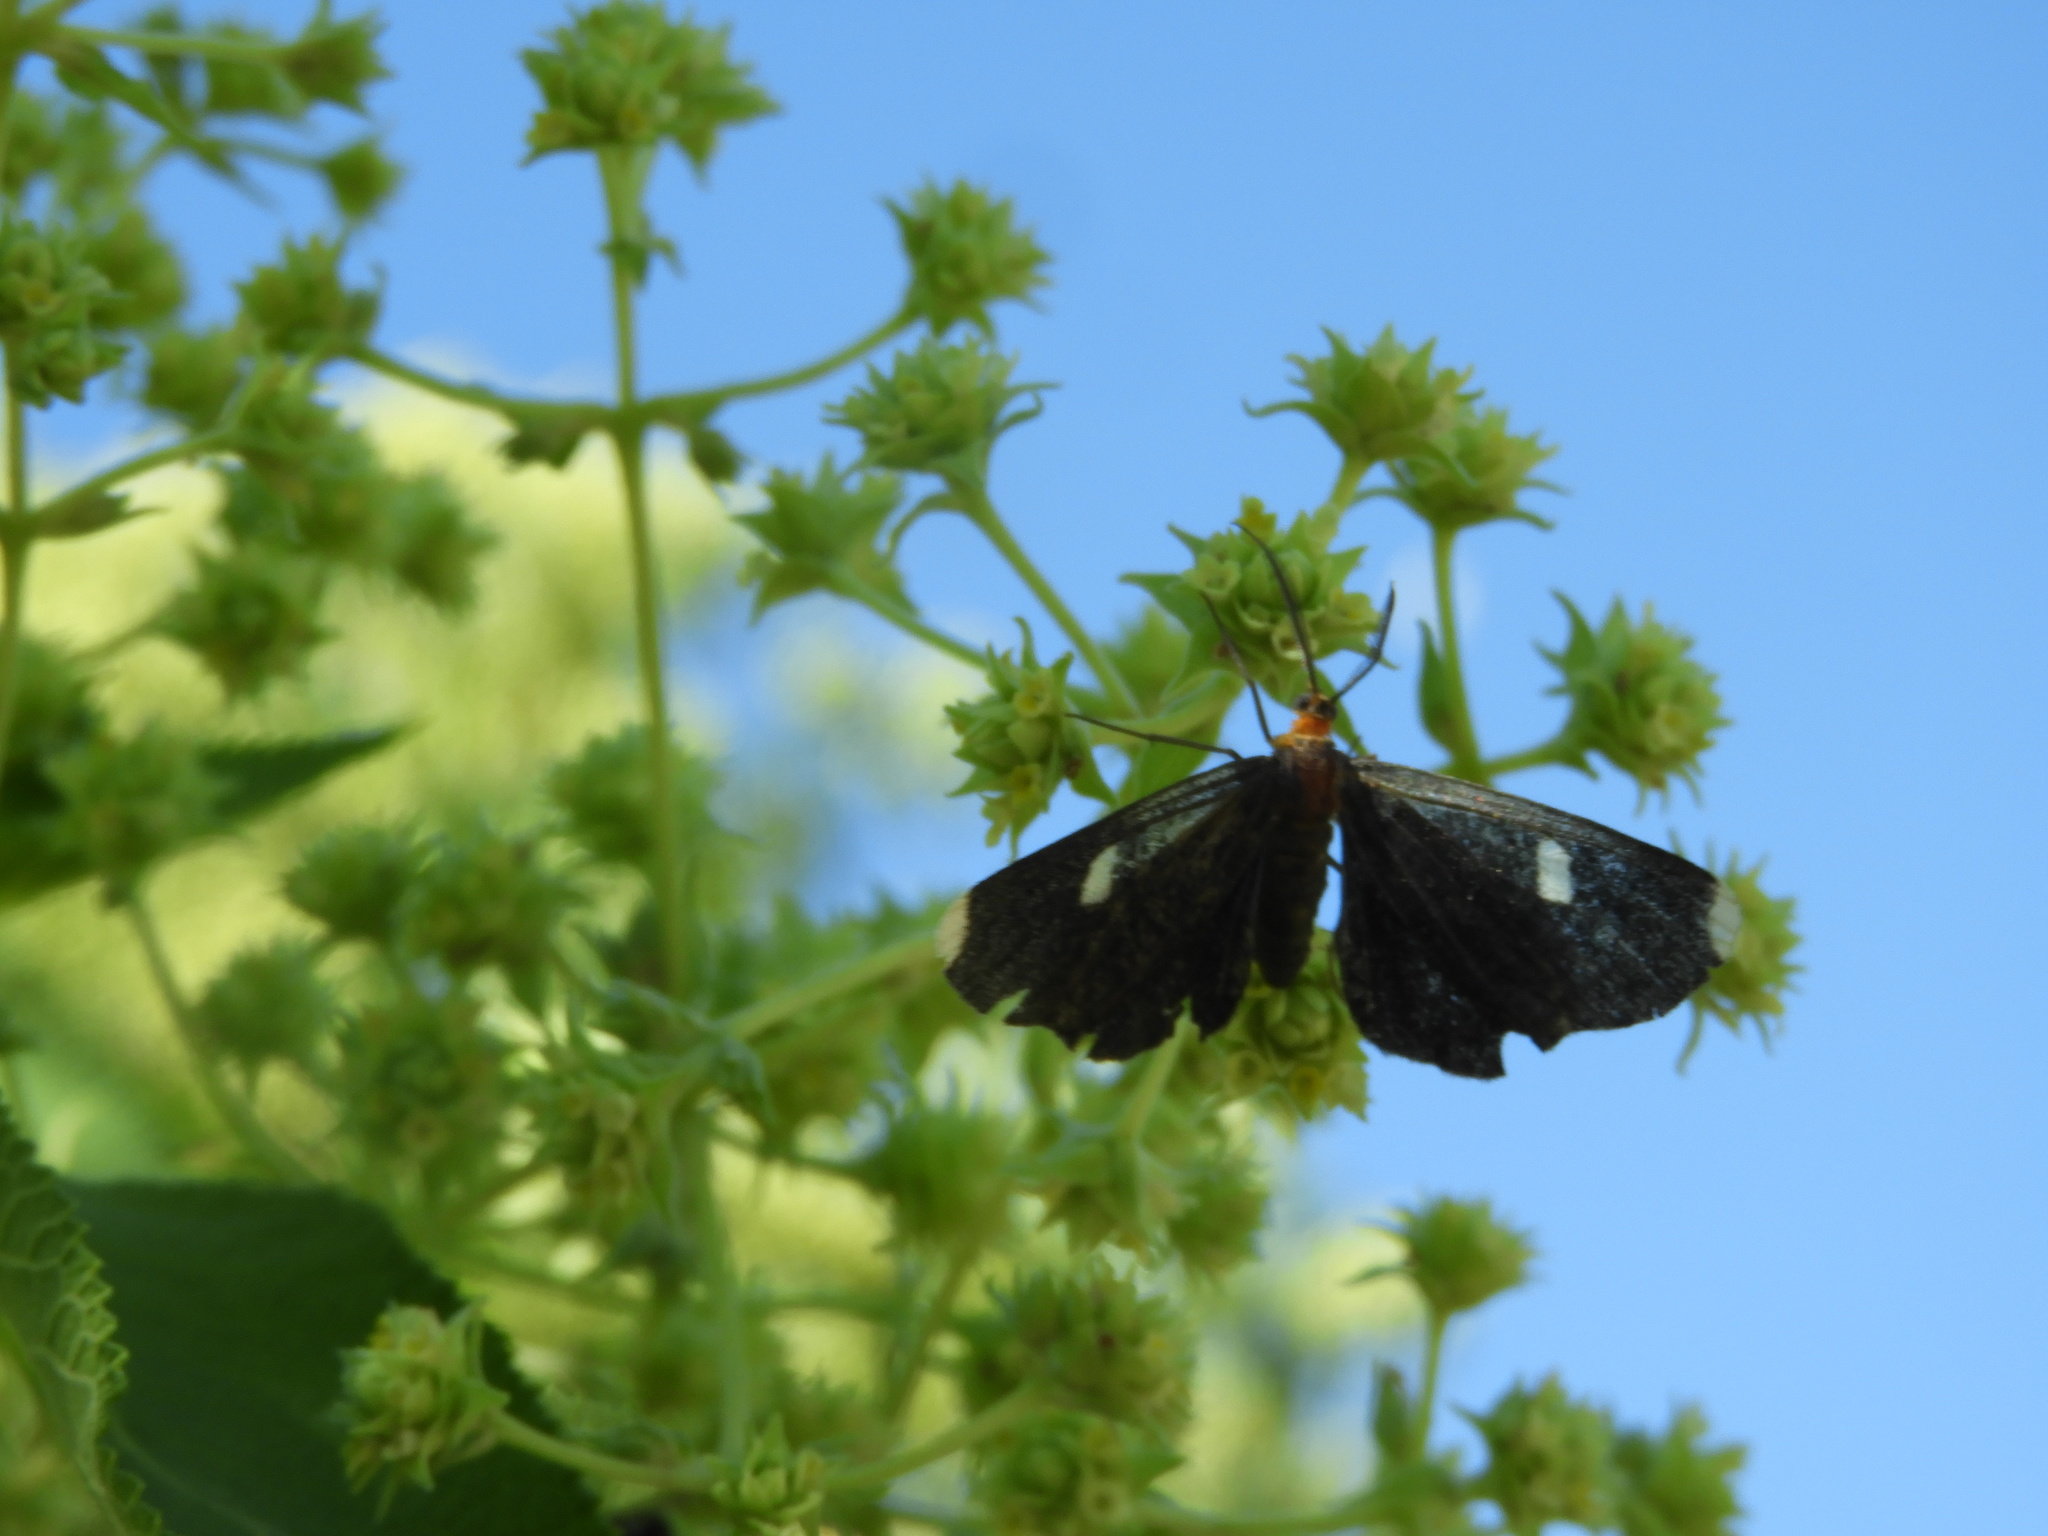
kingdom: Animalia
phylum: Arthropoda
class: Insecta
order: Lepidoptera
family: Geometridae
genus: Melanchroia
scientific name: Melanchroia vazquezae
